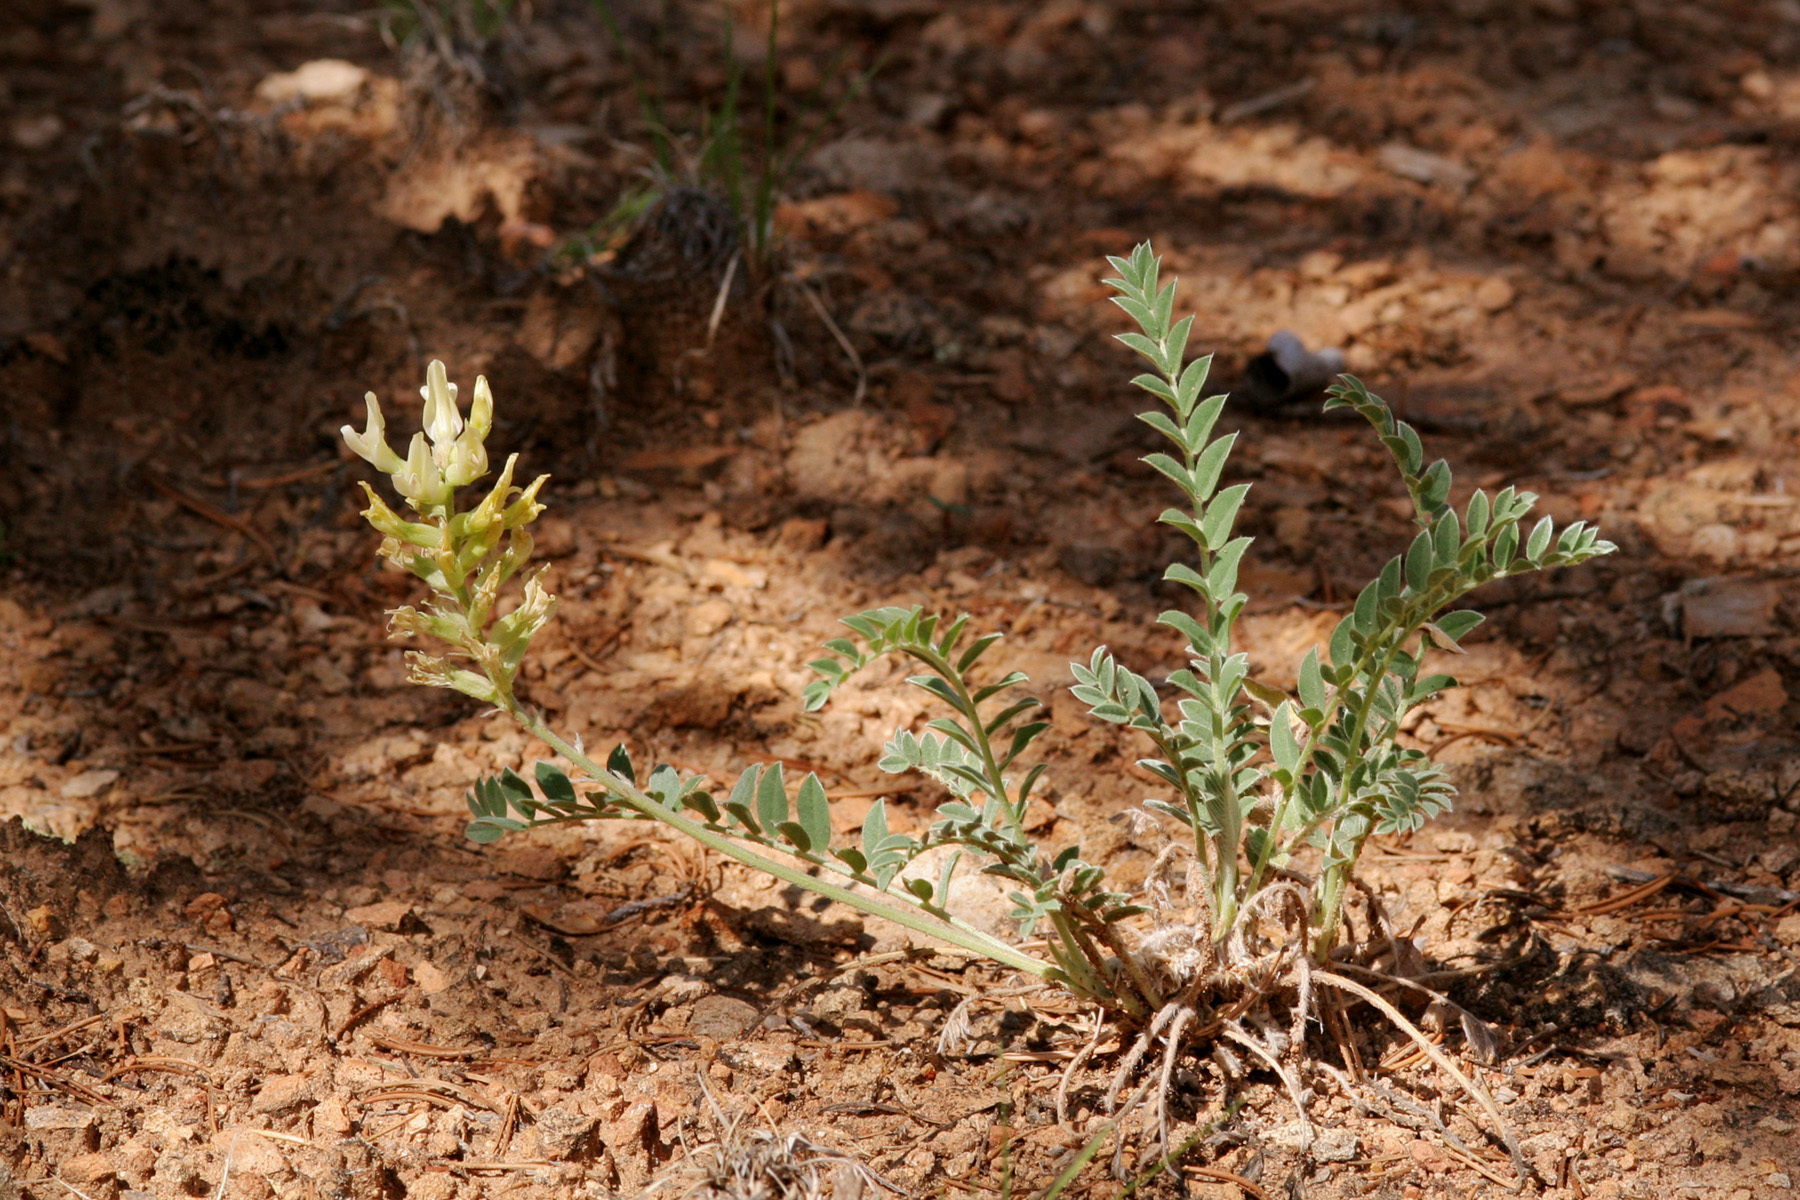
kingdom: Plantae
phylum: Tracheophyta
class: Magnoliopsida
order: Fabales
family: Fabaceae
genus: Astragalus
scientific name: Astragalus giganteus
